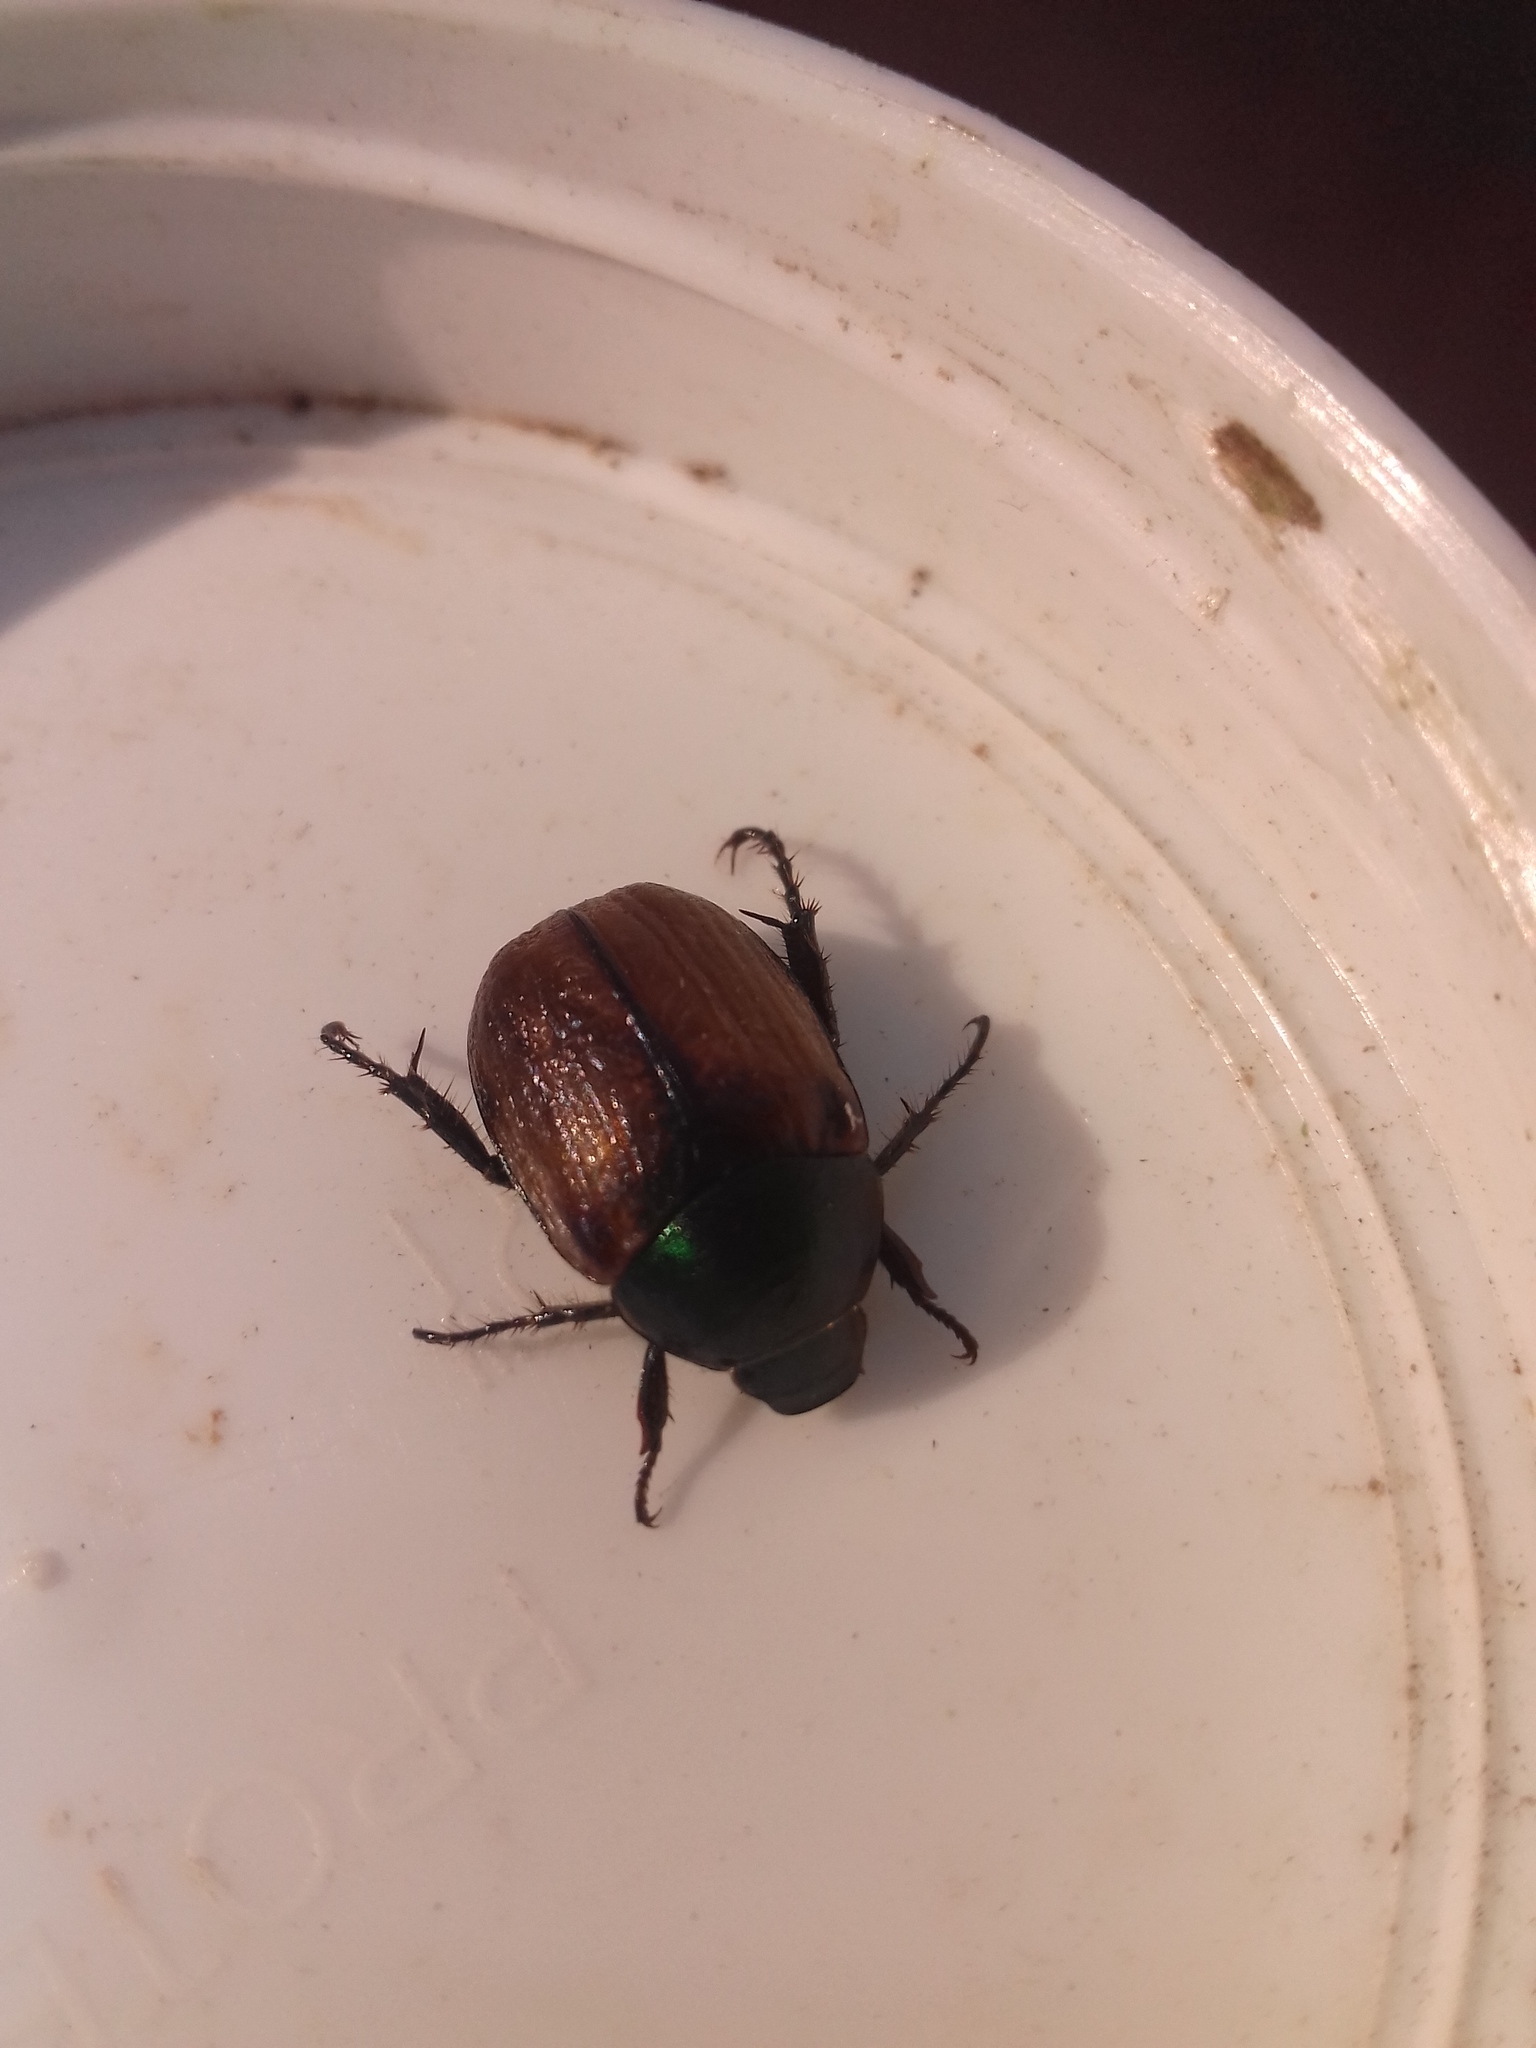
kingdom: Animalia
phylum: Arthropoda
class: Insecta
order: Coleoptera
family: Scarabaeidae
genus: Anomala
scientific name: Anomala dubia
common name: Dune chafer
